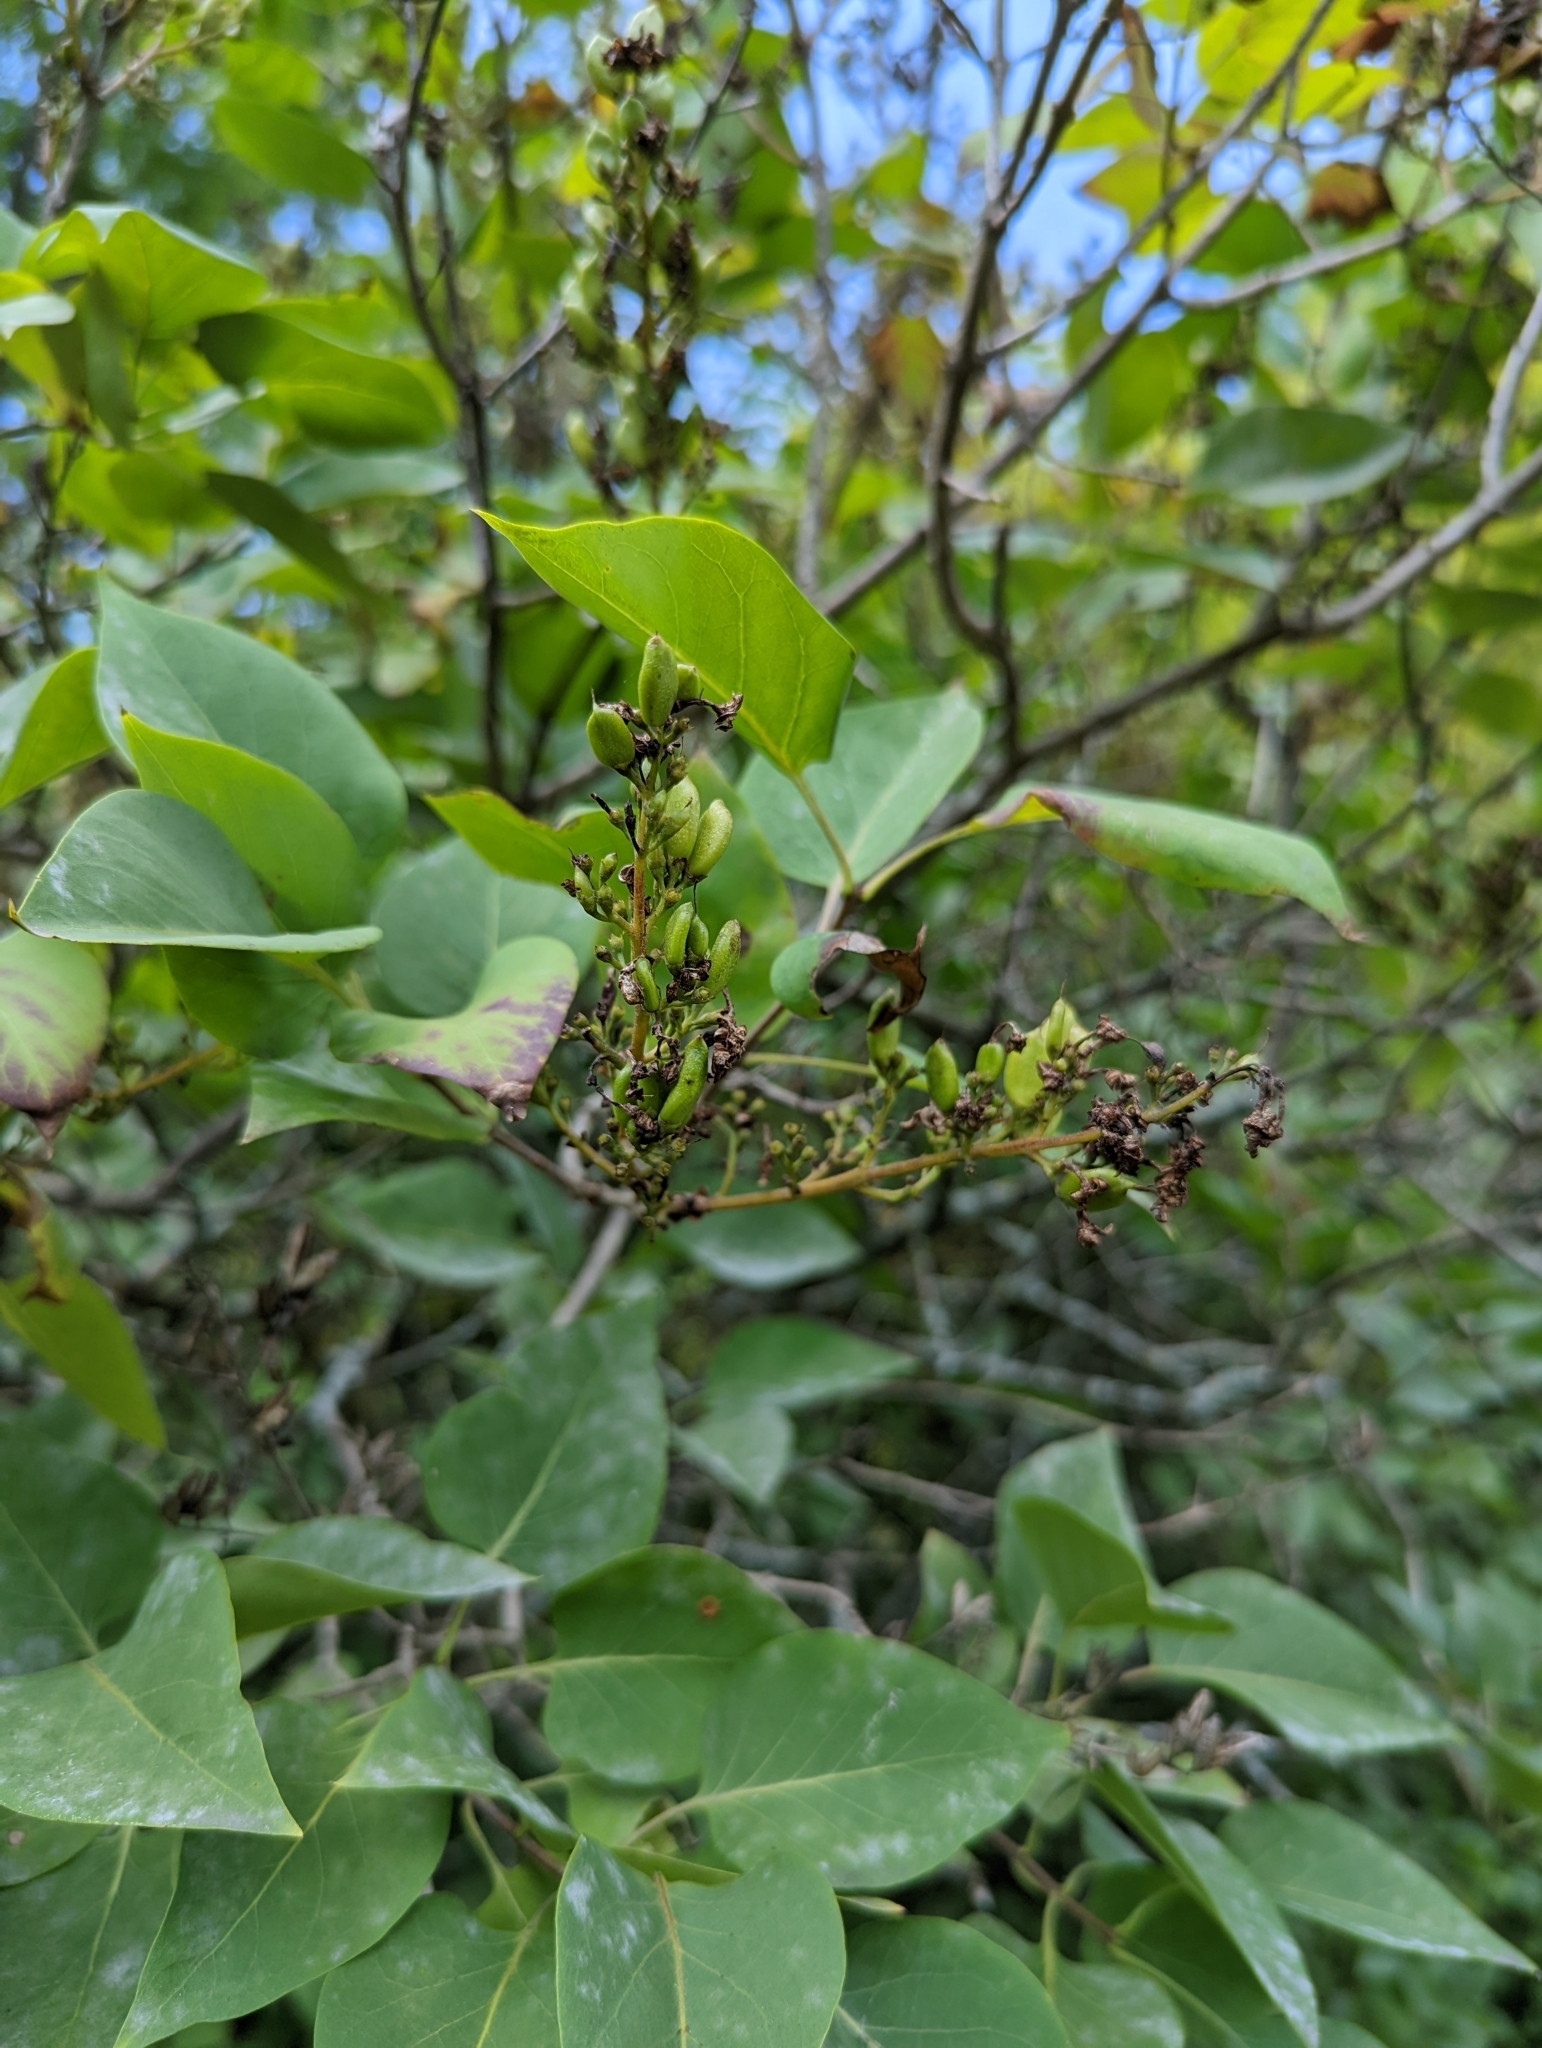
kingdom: Plantae
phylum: Tracheophyta
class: Magnoliopsida
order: Lamiales
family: Oleaceae
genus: Syringa
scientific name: Syringa vulgaris
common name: Common lilac
